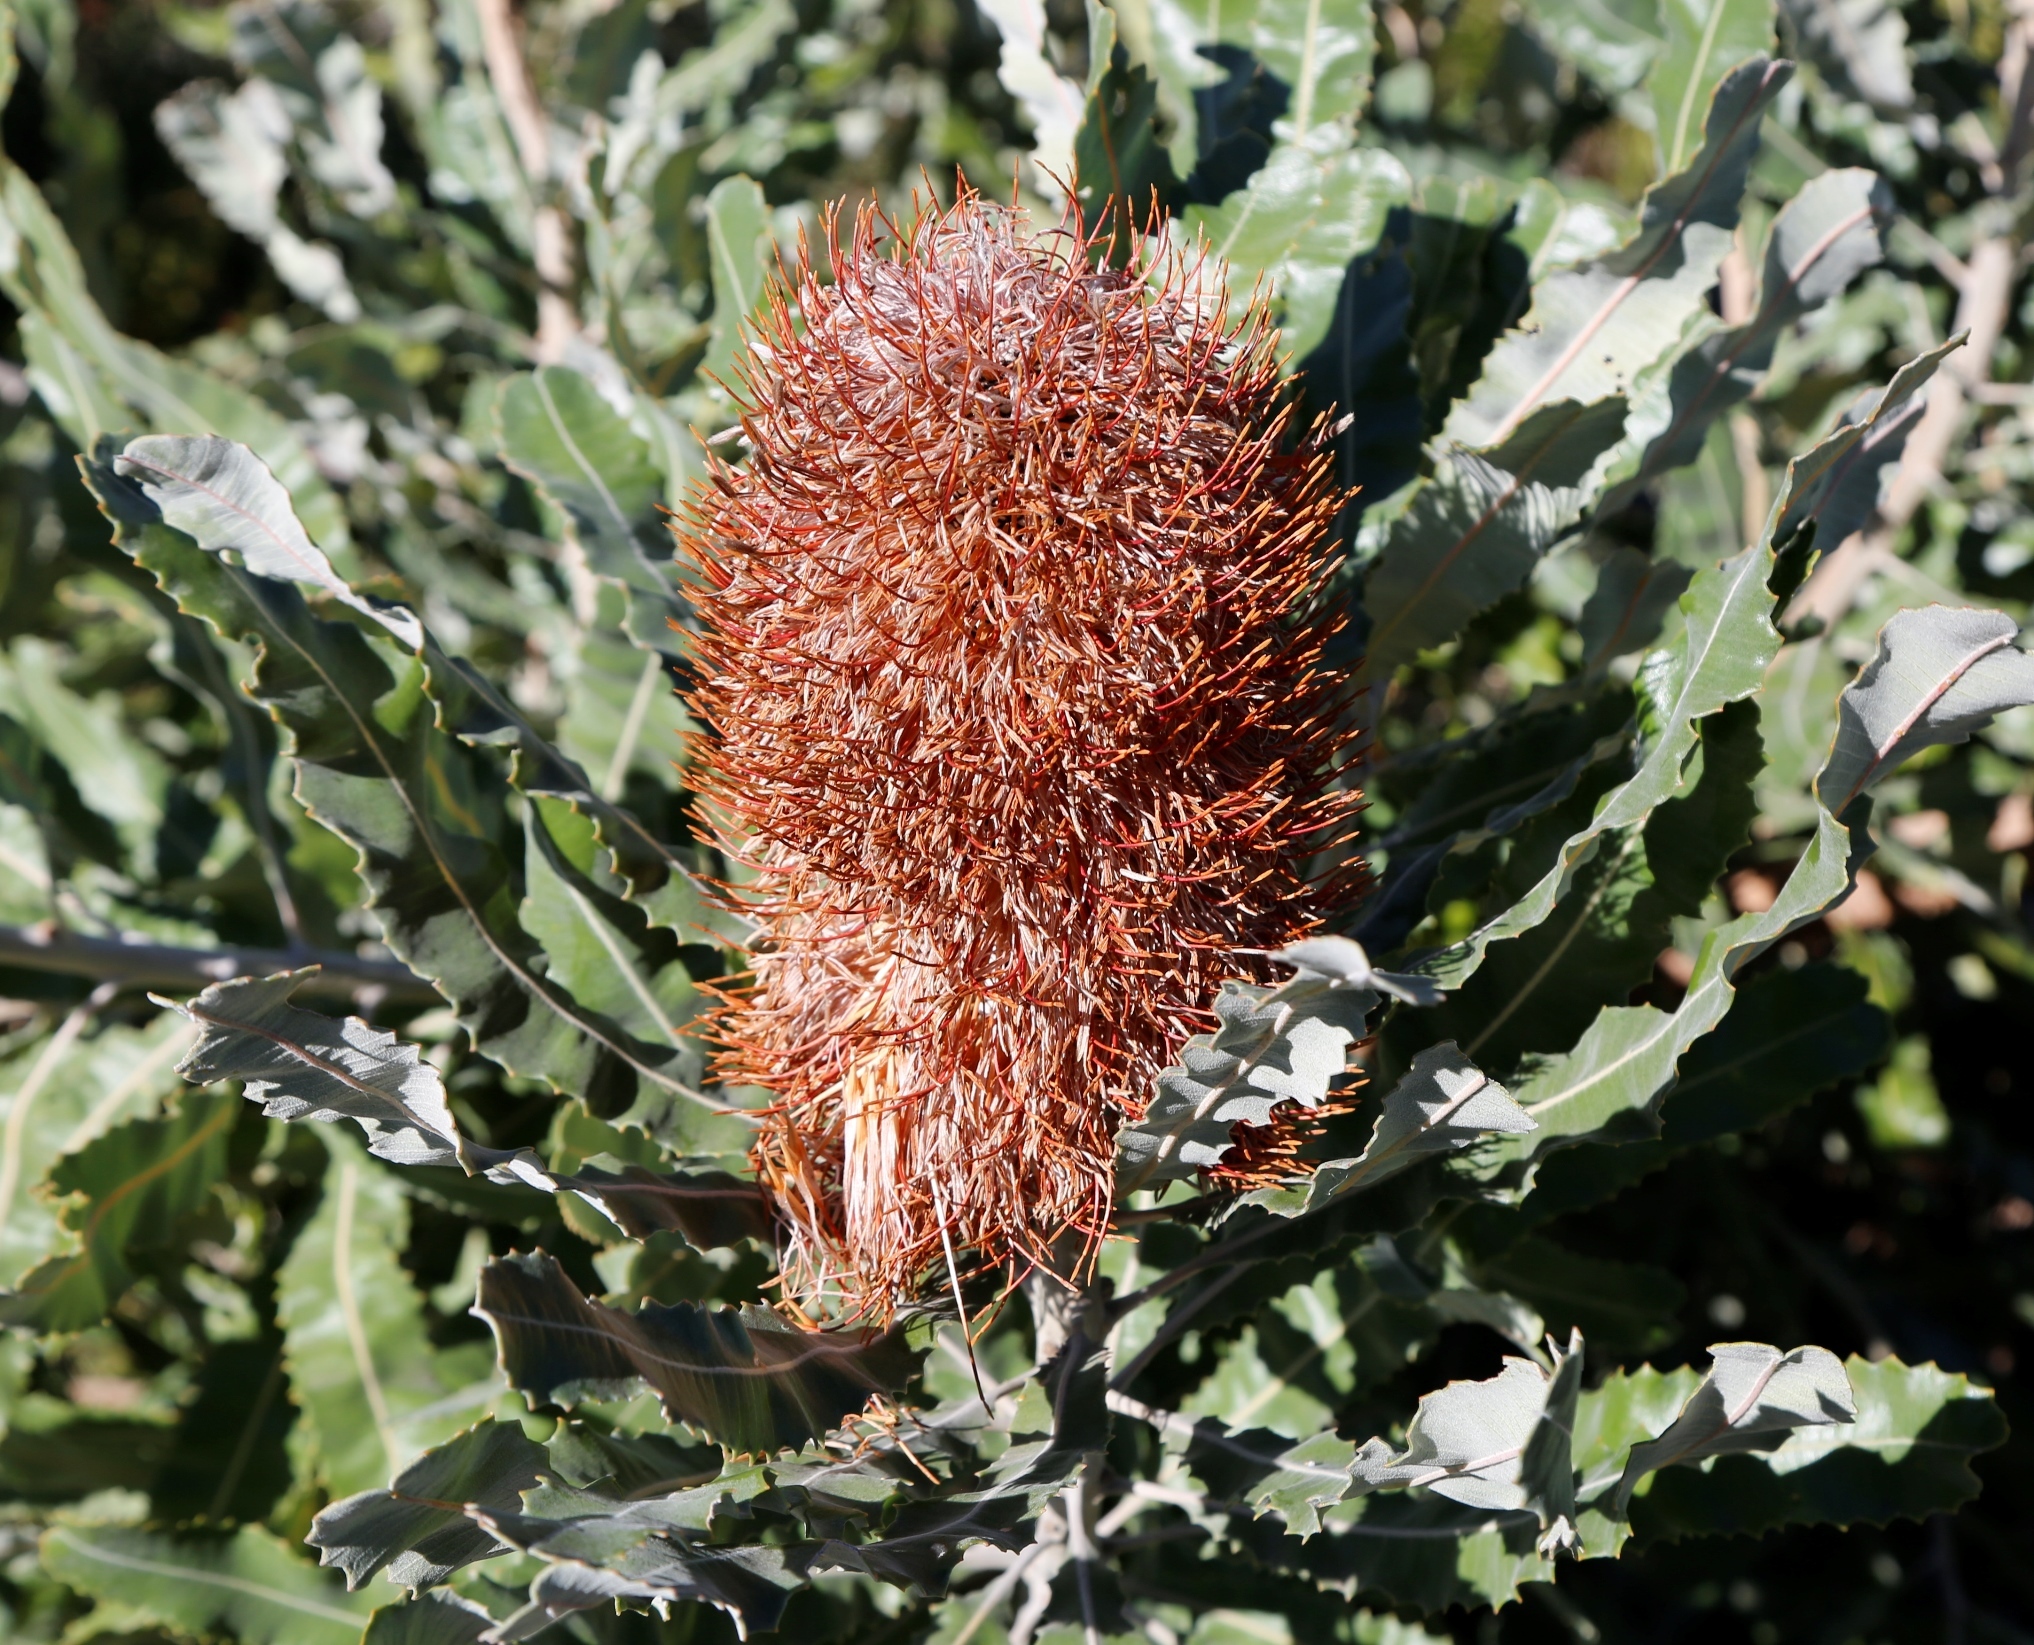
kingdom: Plantae
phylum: Tracheophyta
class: Magnoliopsida
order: Proteales
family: Proteaceae
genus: Banksia
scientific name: Banksia menziesii
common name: Menzie's banksia
